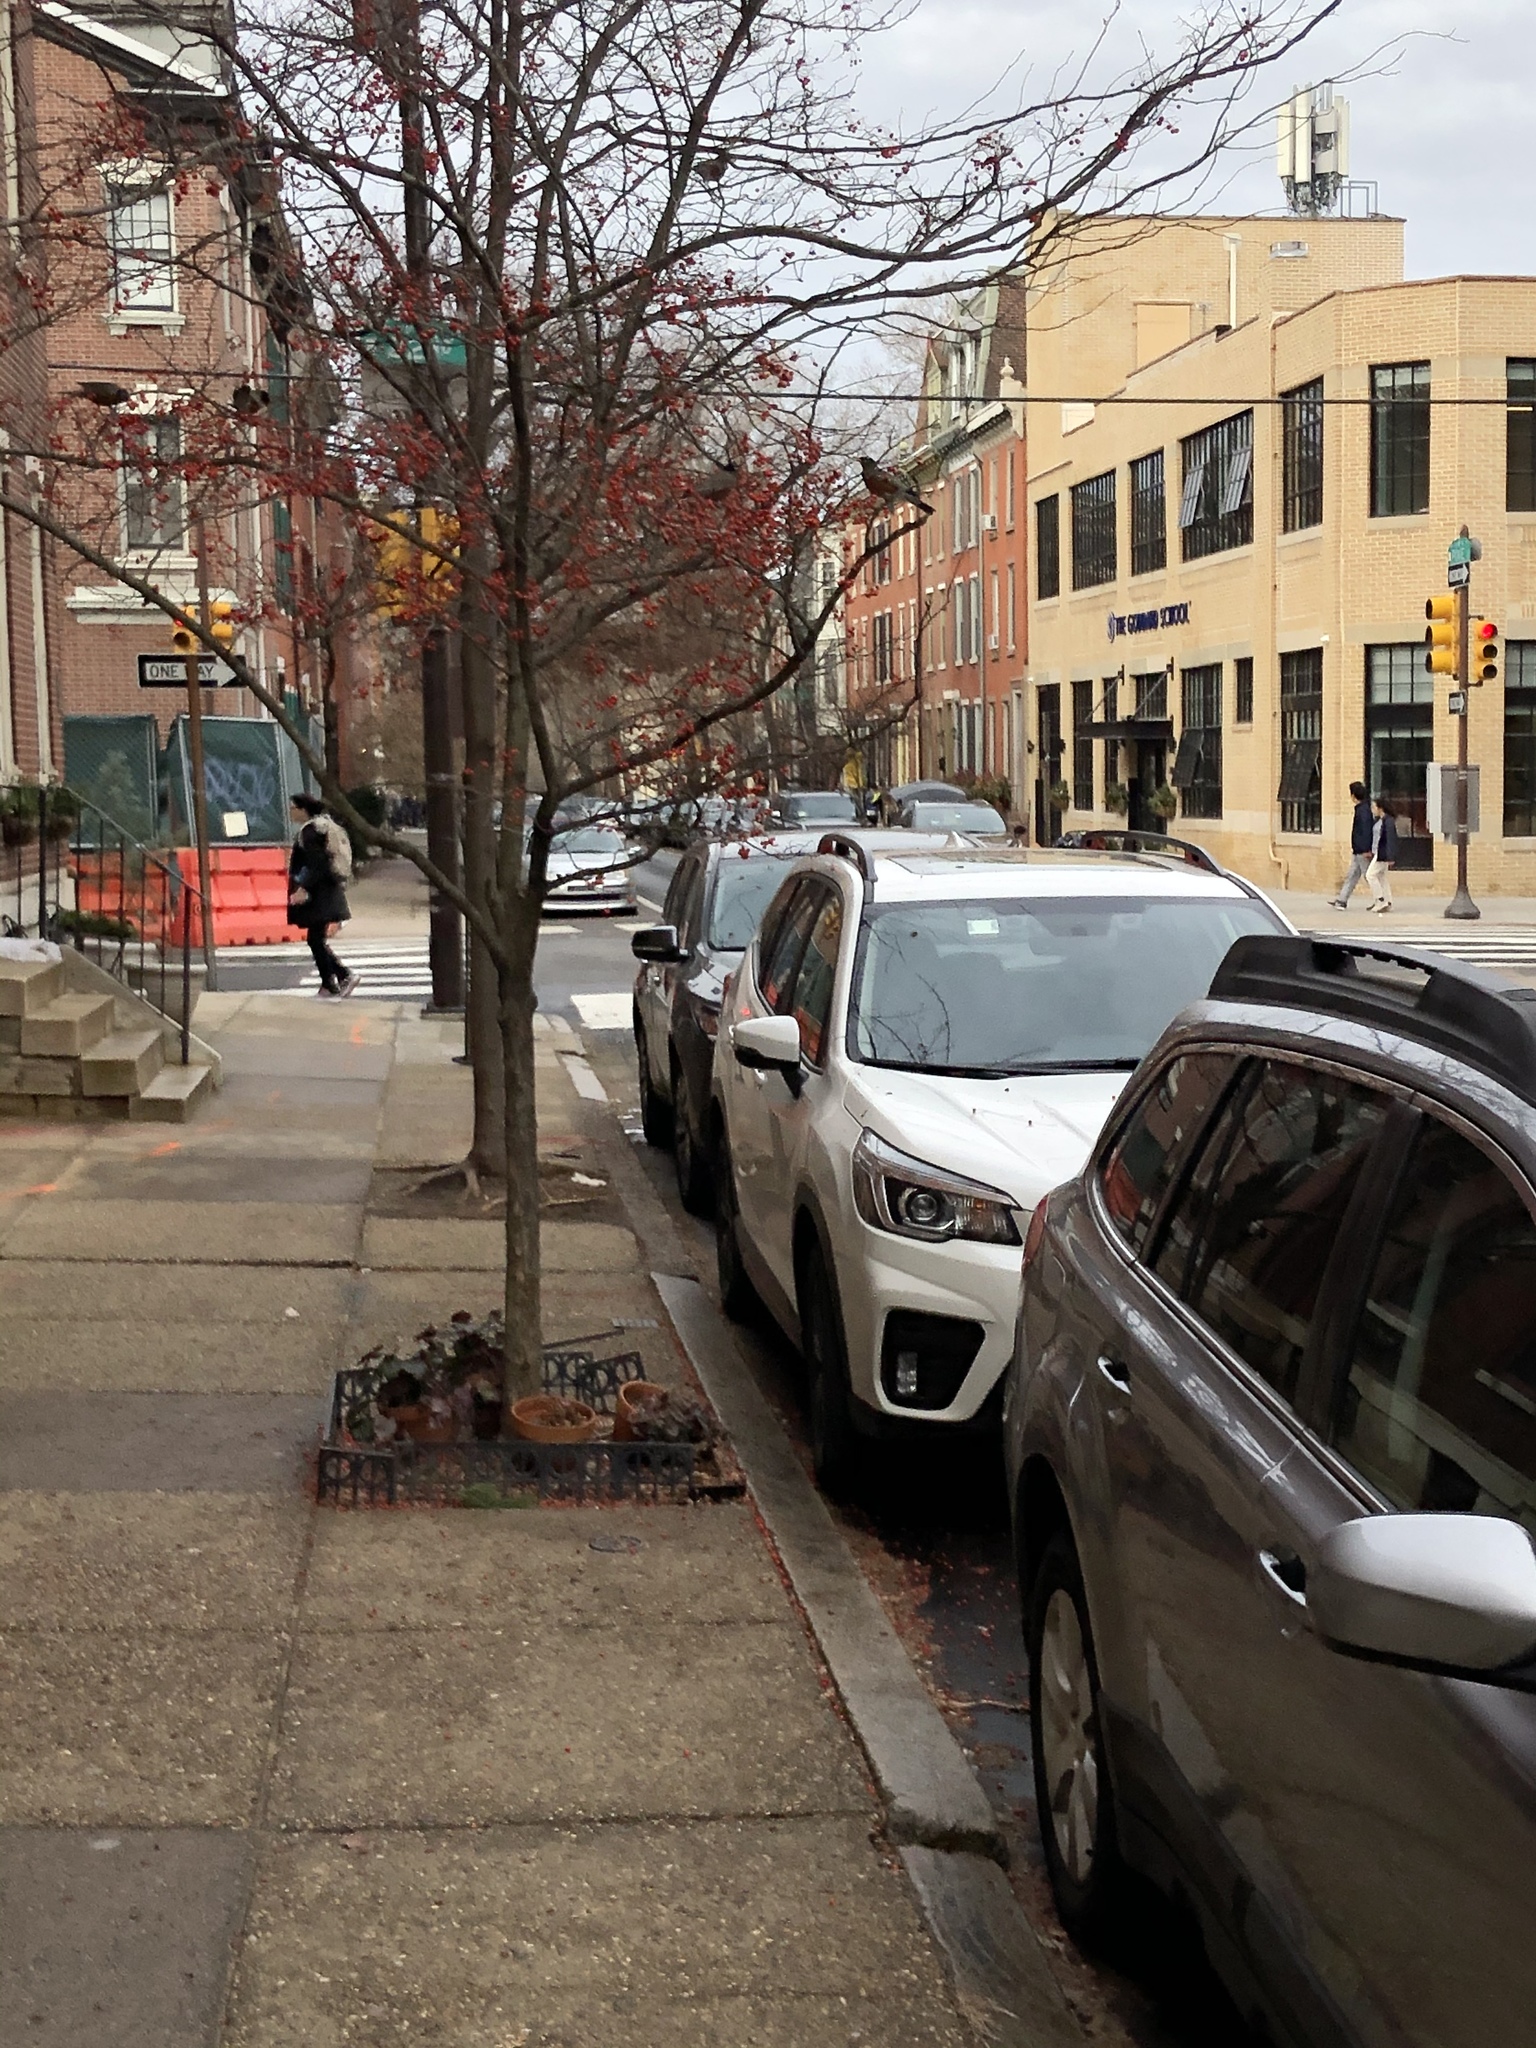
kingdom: Animalia
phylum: Chordata
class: Aves
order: Passeriformes
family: Turdidae
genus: Turdus
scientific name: Turdus migratorius
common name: American robin
